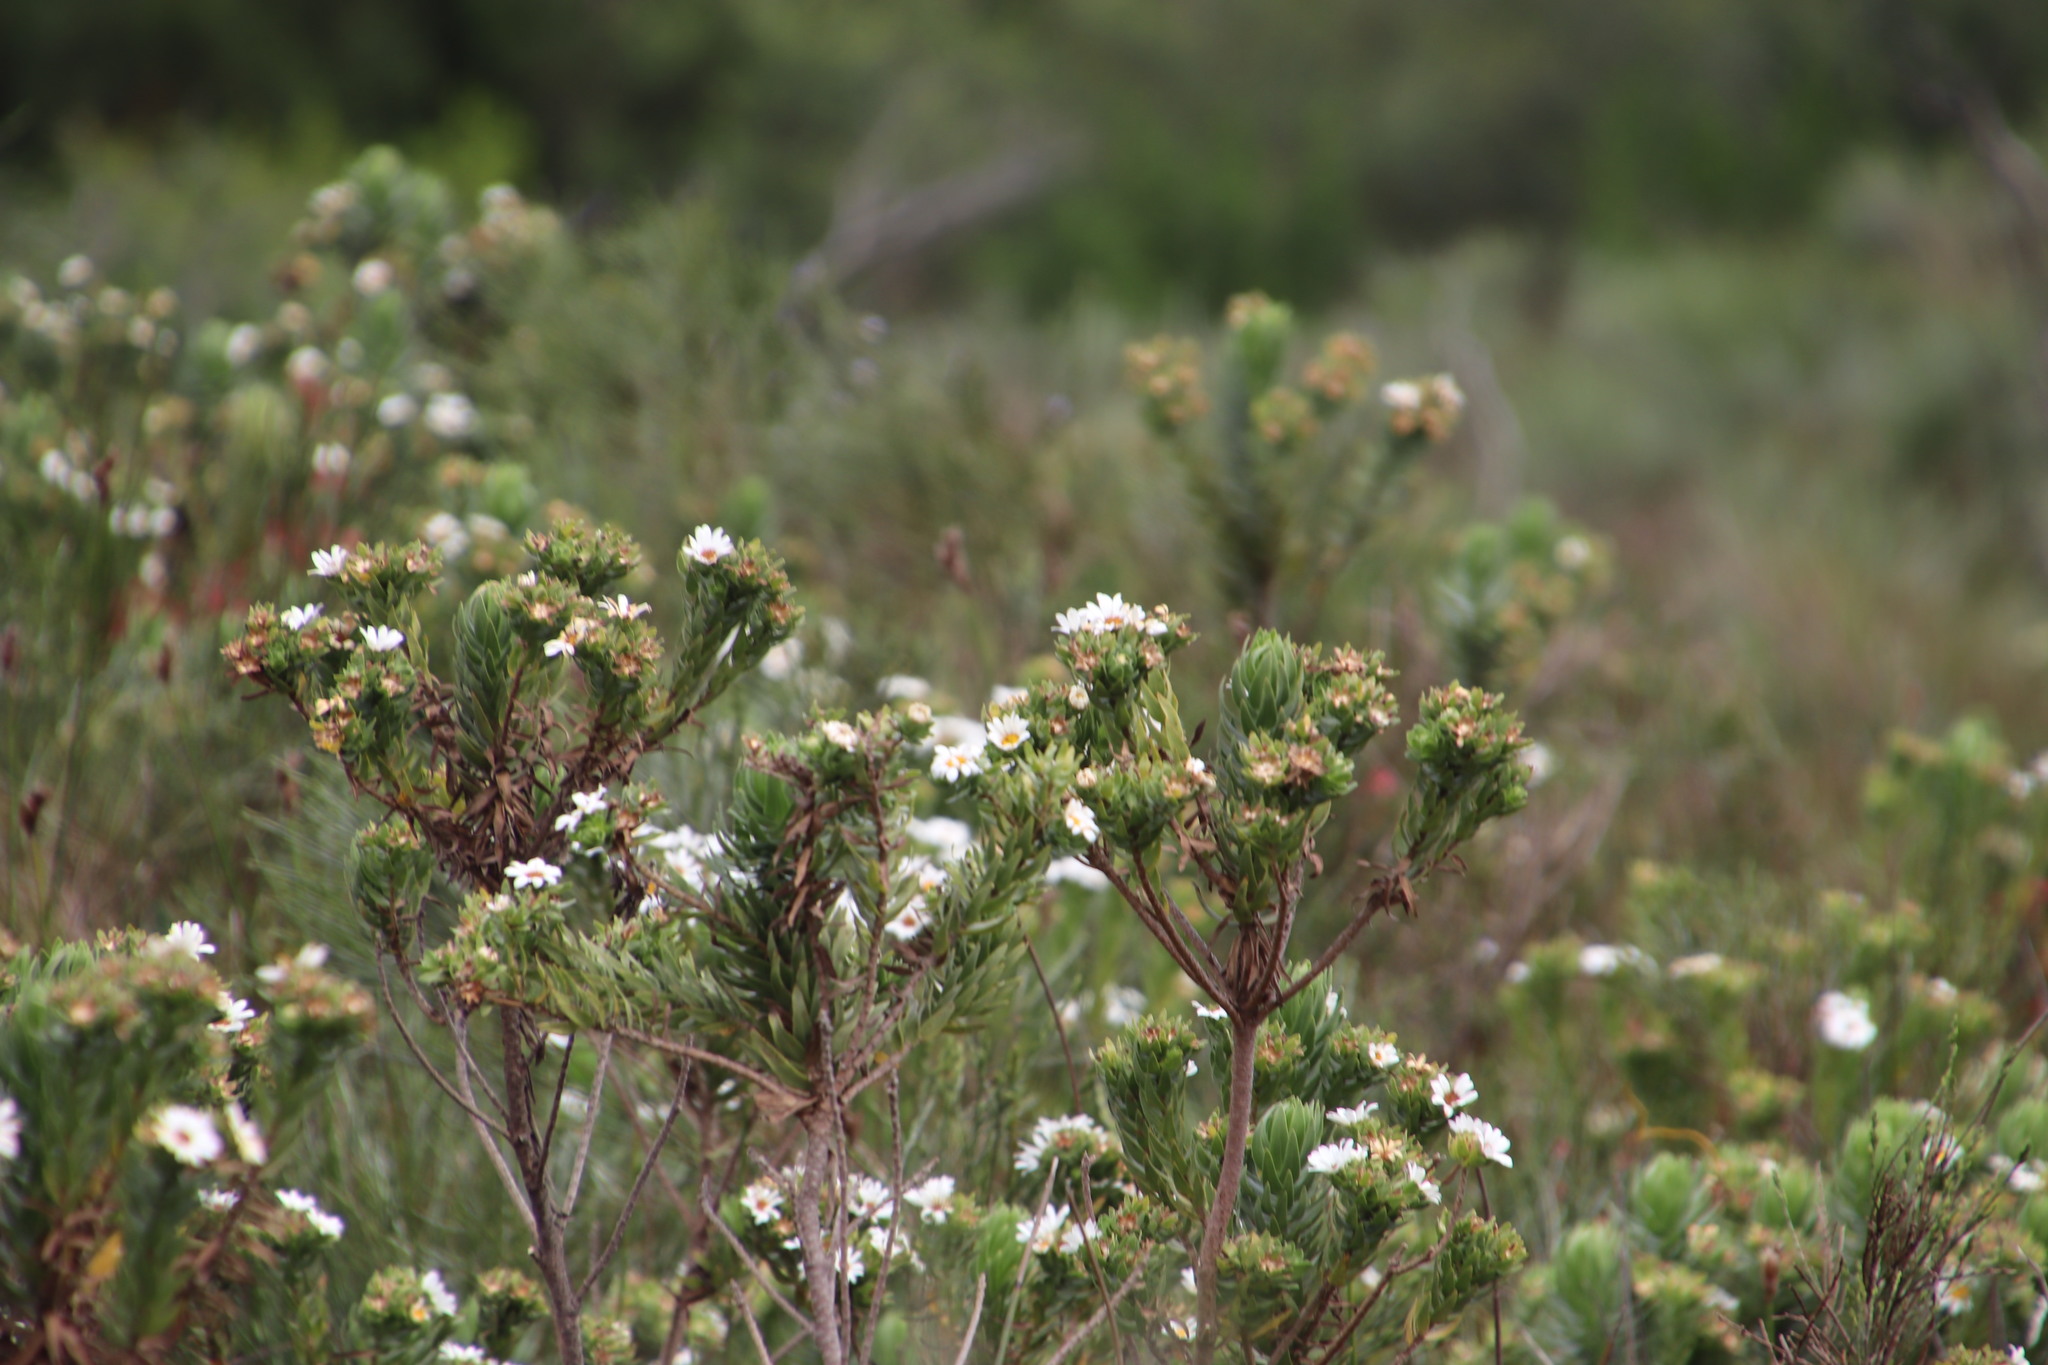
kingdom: Plantae
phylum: Tracheophyta
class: Magnoliopsida
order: Asterales
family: Asteraceae
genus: Osmitopsis
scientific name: Osmitopsis asteriscoides
